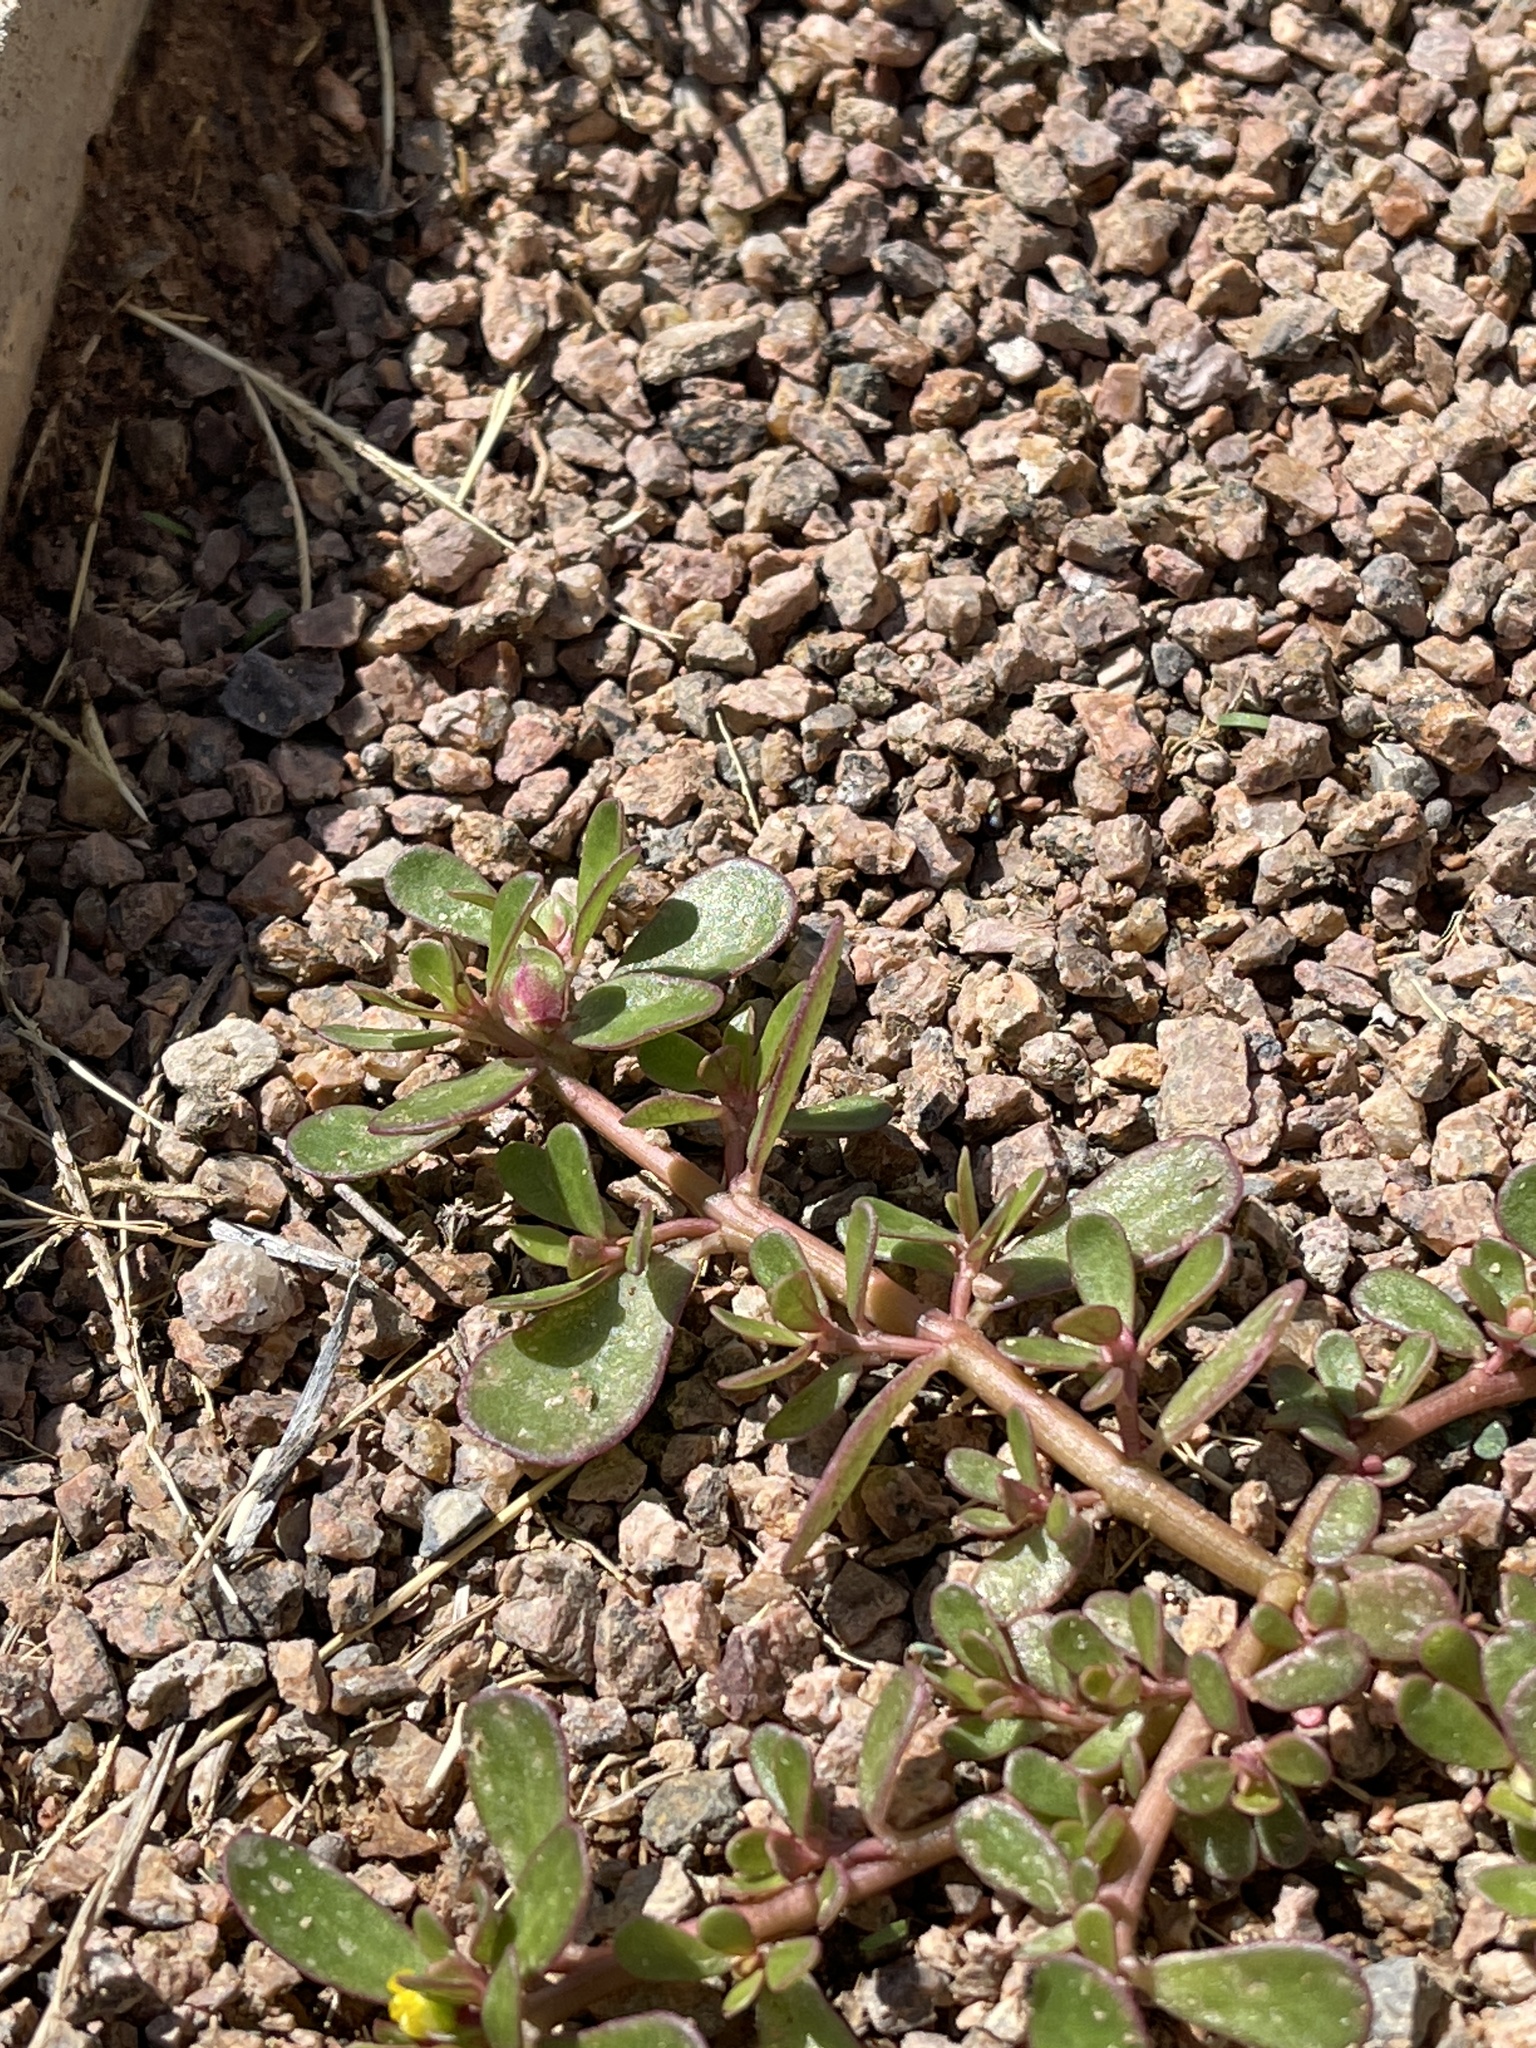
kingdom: Plantae
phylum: Tracheophyta
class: Magnoliopsida
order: Caryophyllales
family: Portulacaceae
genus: Portulaca
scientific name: Portulaca oleracea
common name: Common purslane
